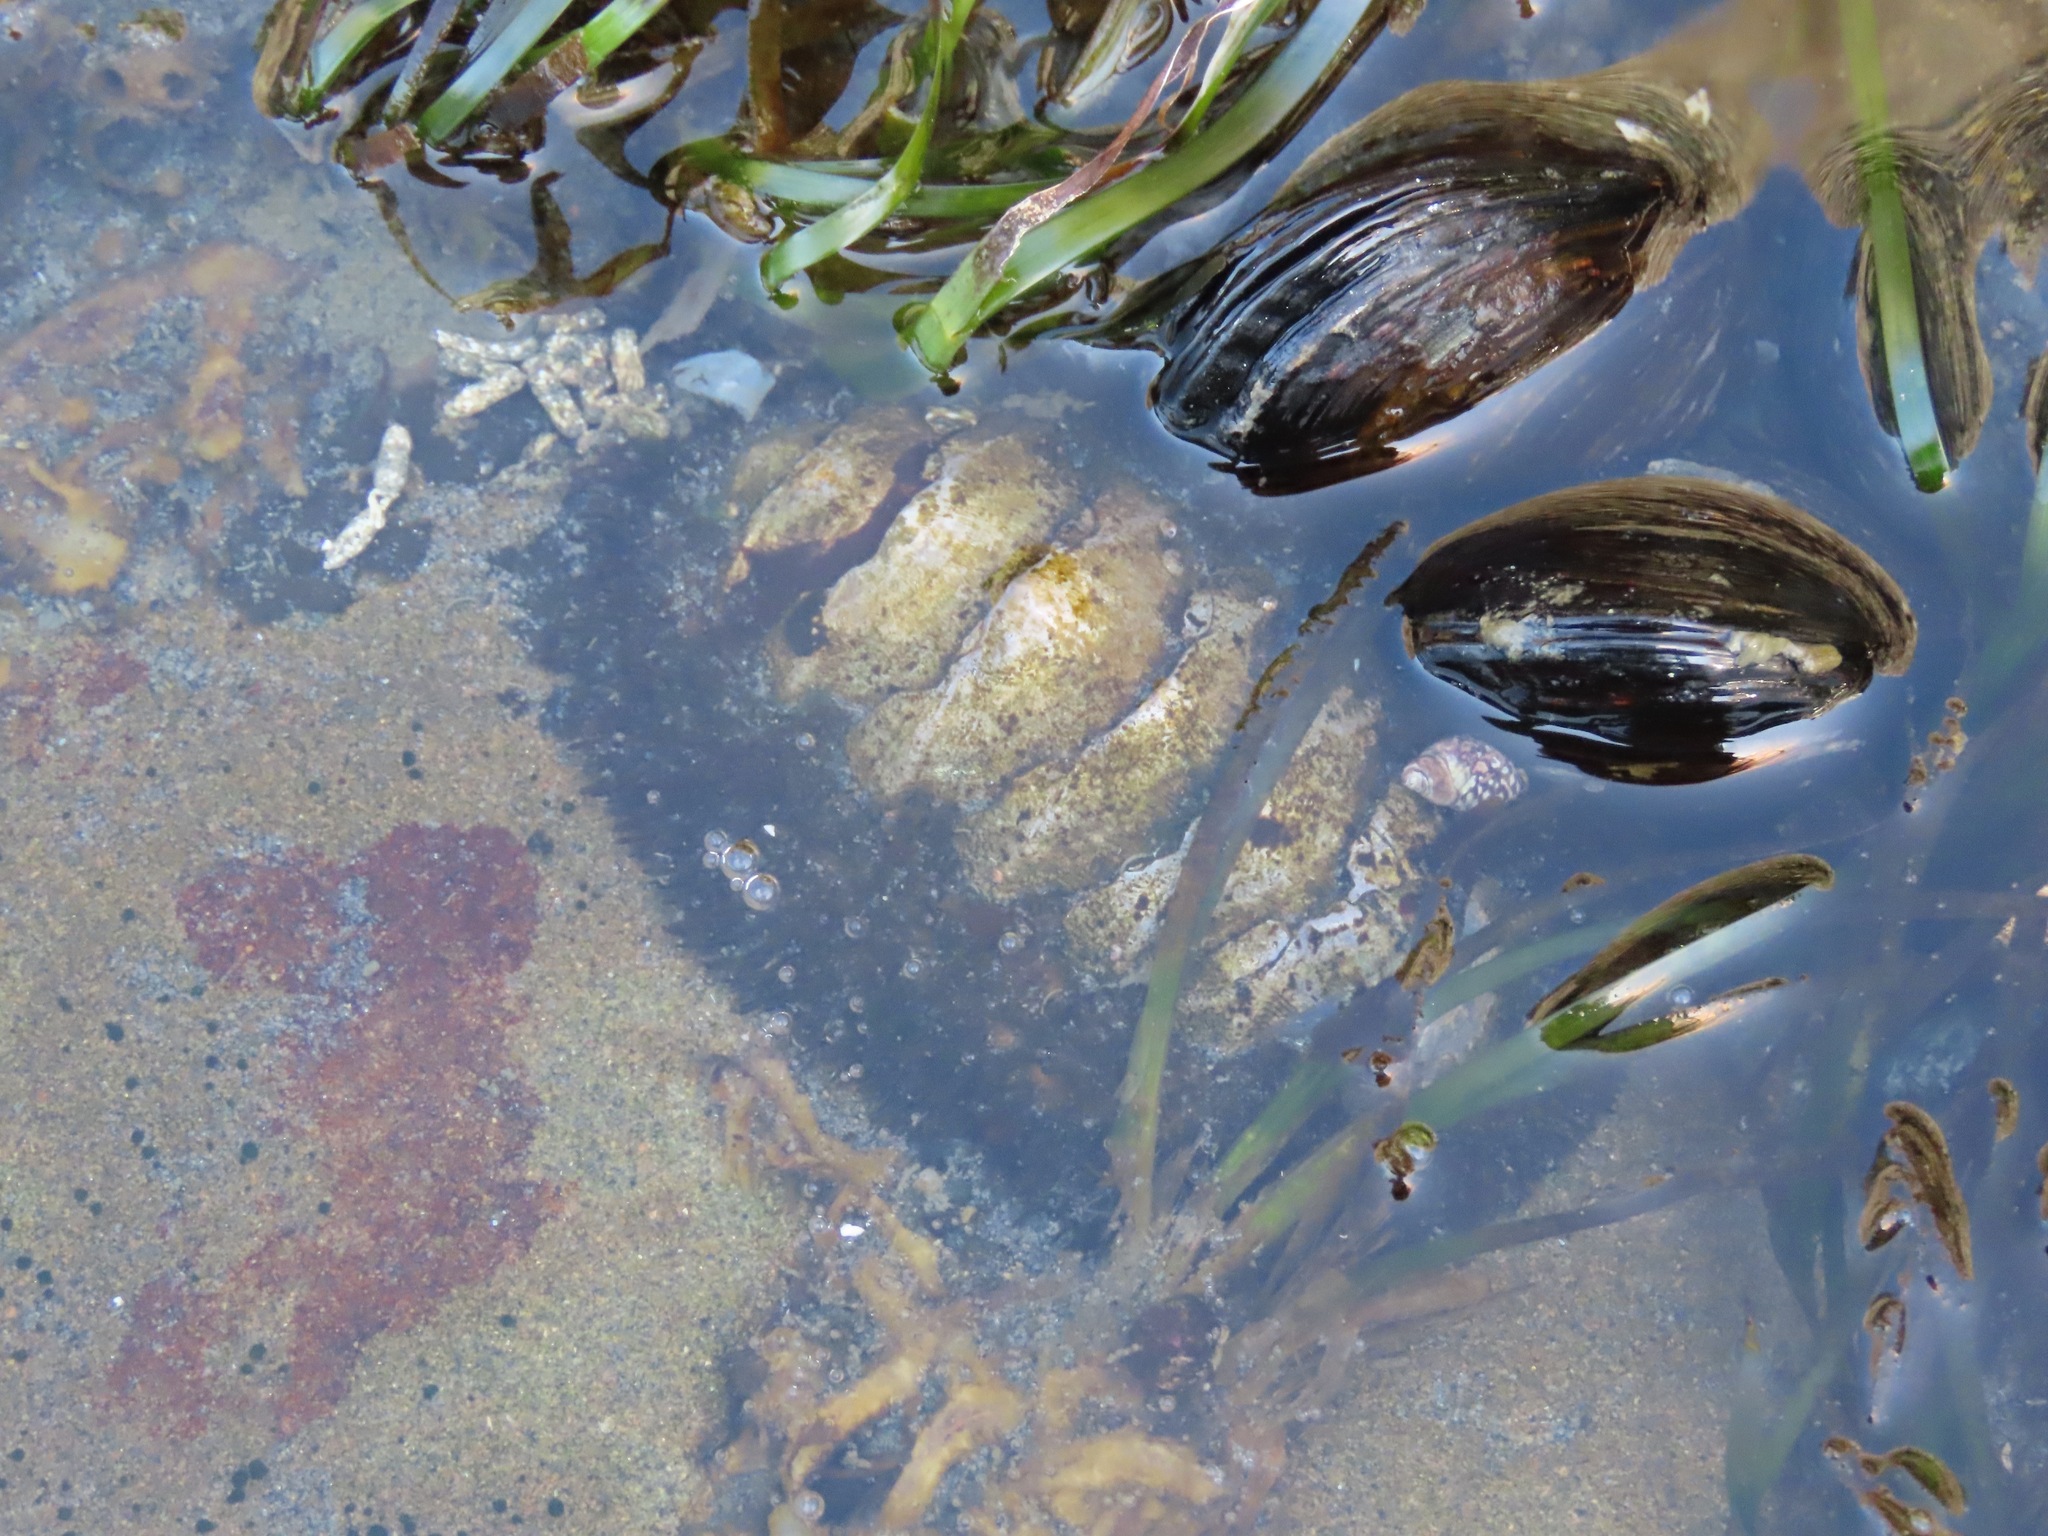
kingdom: Animalia
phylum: Mollusca
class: Polyplacophora
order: Chitonida
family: Mopaliidae
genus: Mopalia
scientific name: Mopalia muscosa
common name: Mossy chiton
